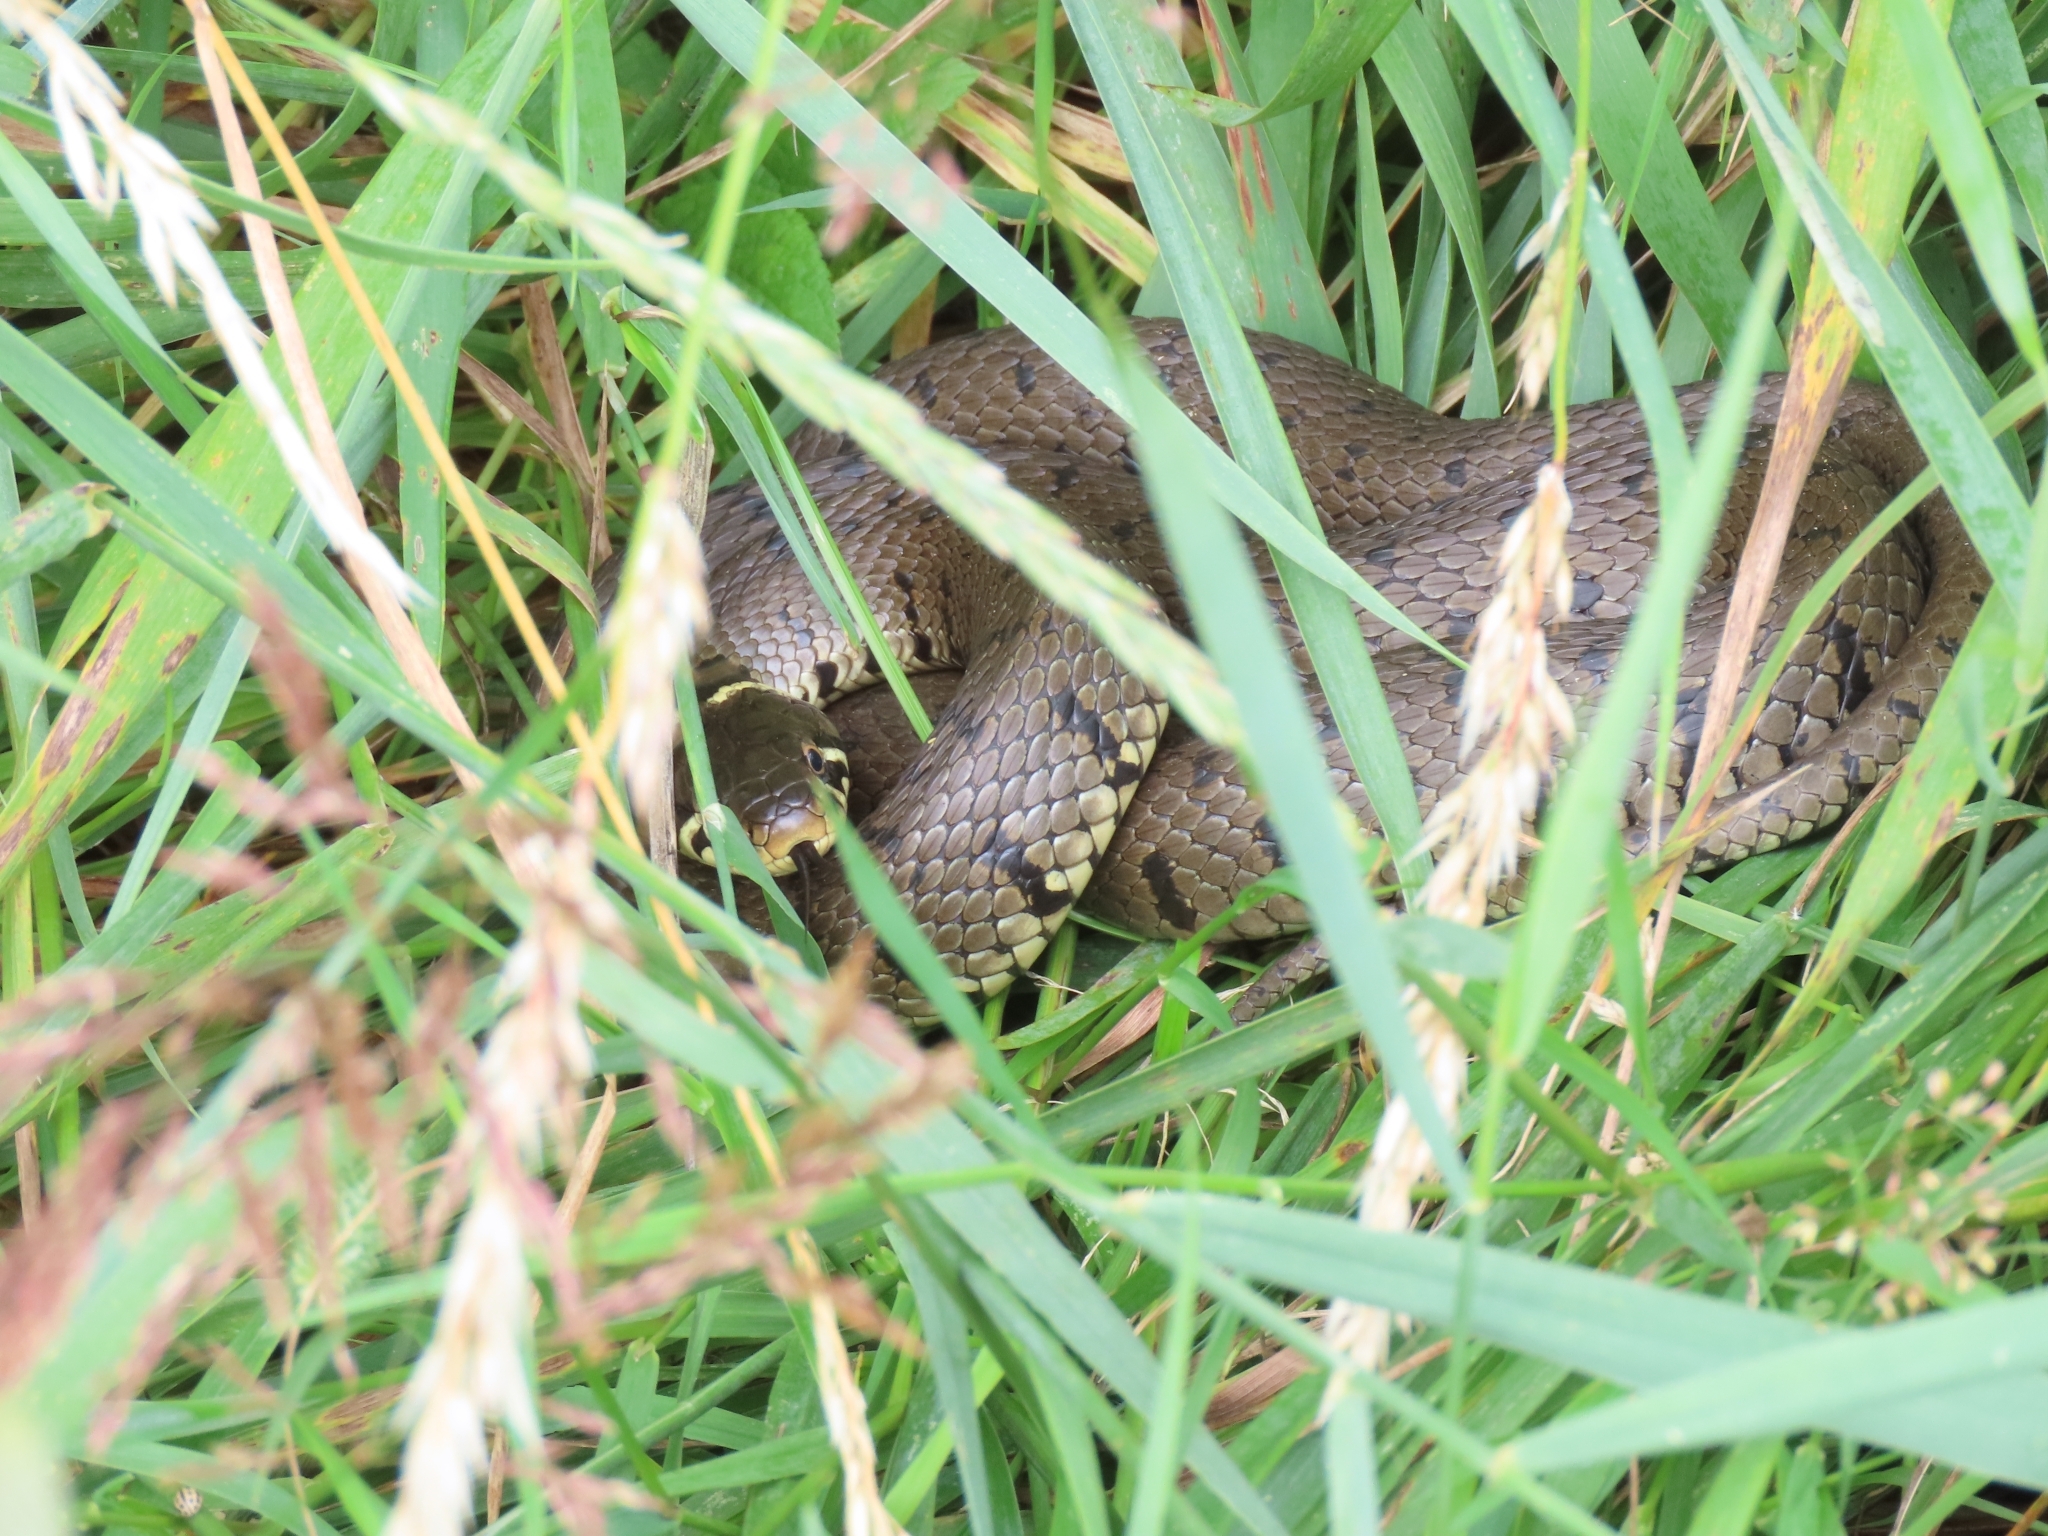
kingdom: Animalia
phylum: Chordata
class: Squamata
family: Colubridae
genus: Natrix
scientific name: Natrix helvetica
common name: Banded grass snake
